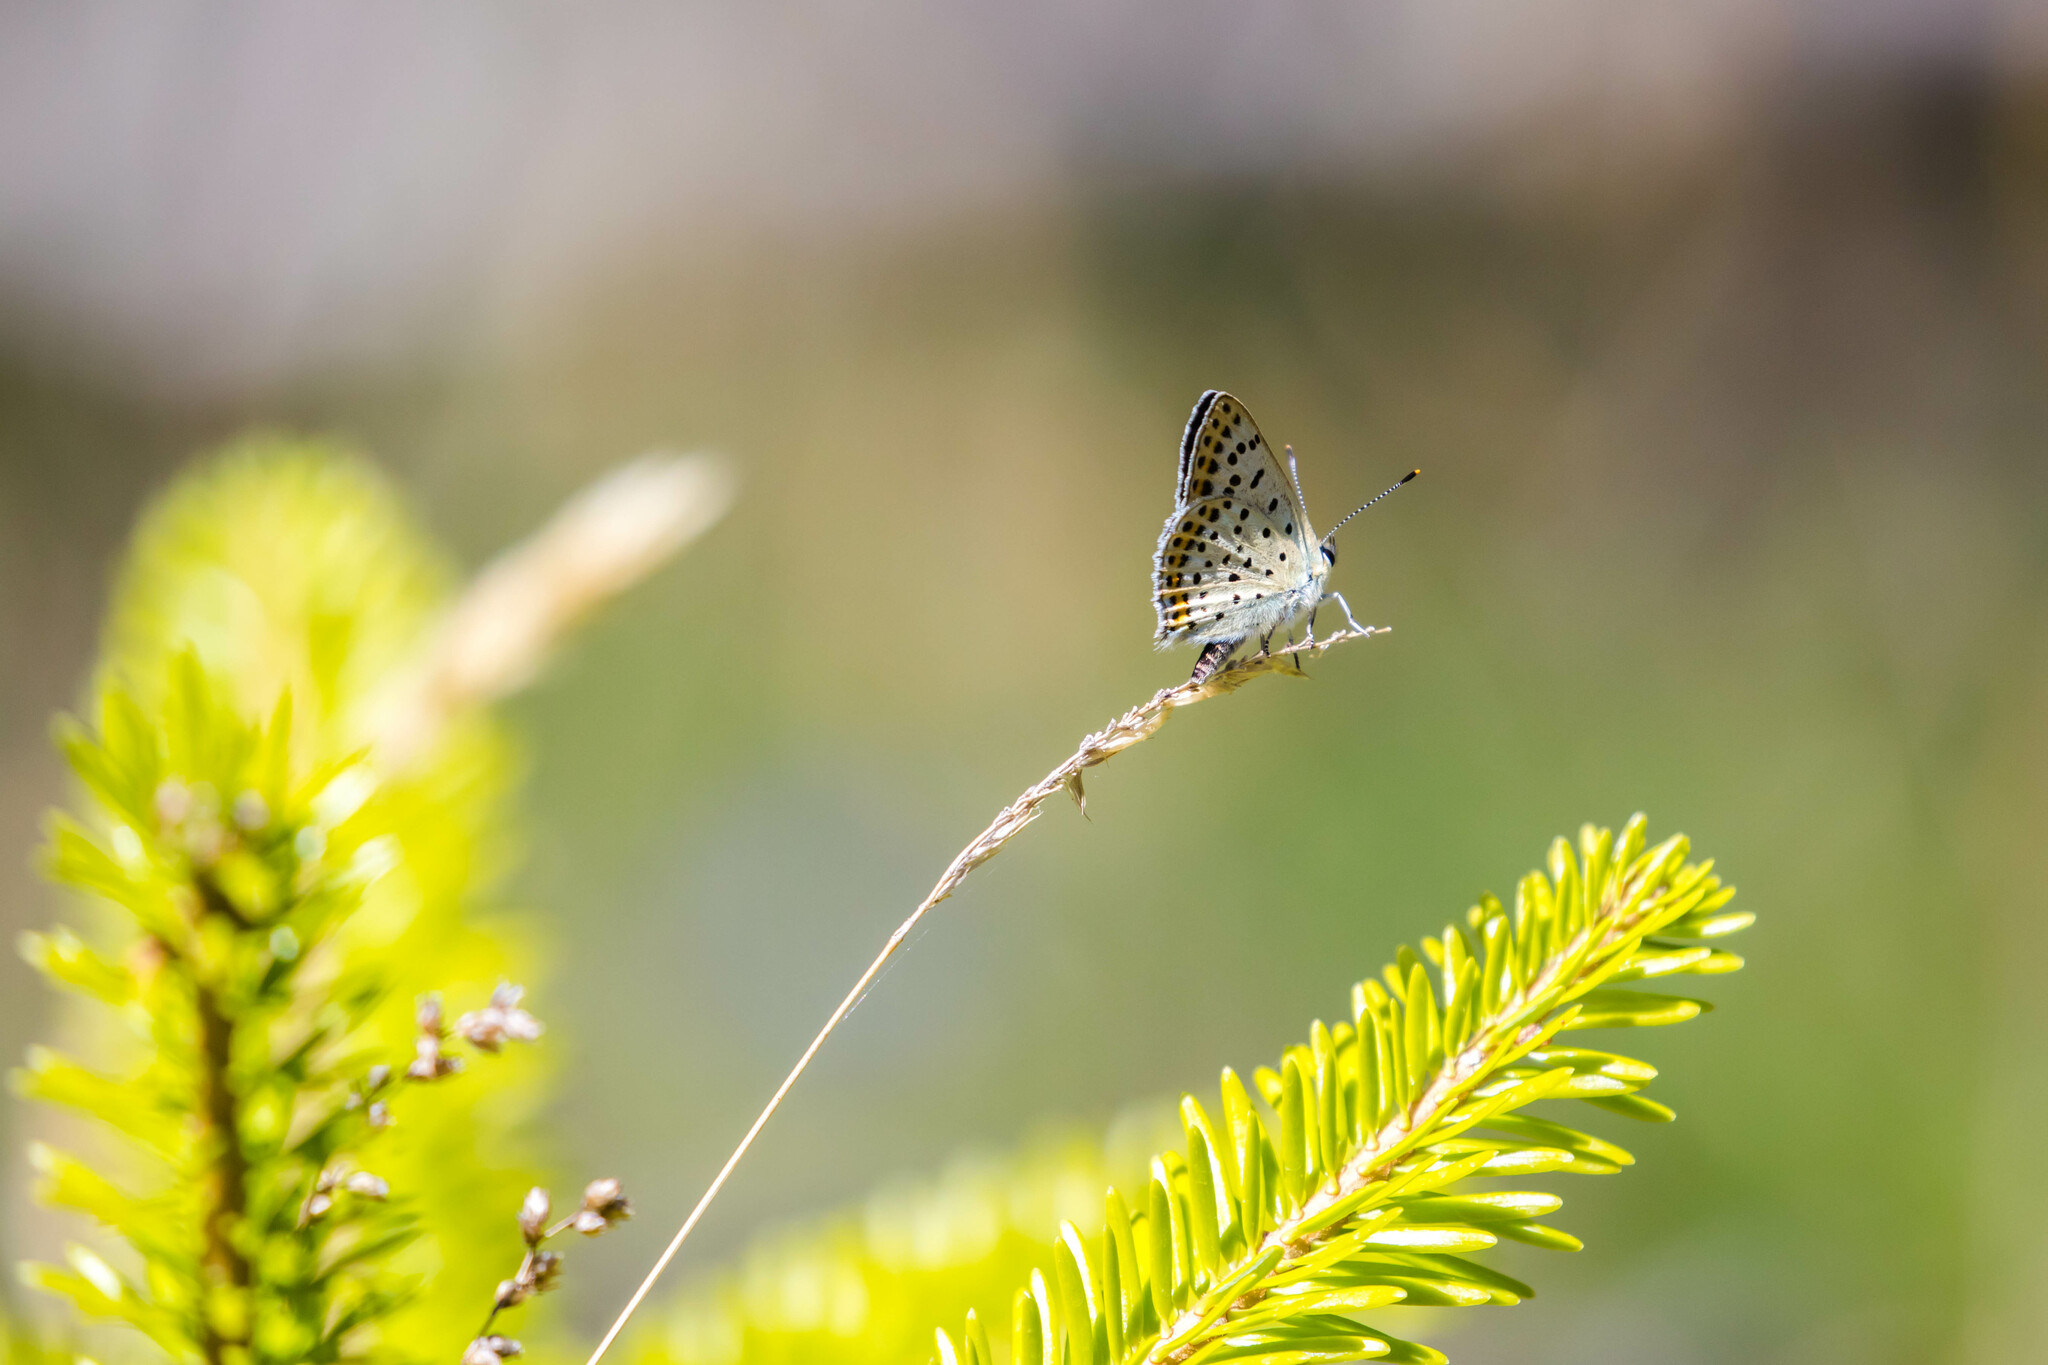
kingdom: Animalia
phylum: Arthropoda
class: Insecta
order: Lepidoptera
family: Lycaenidae
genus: Loweia
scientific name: Loweia tityrus
